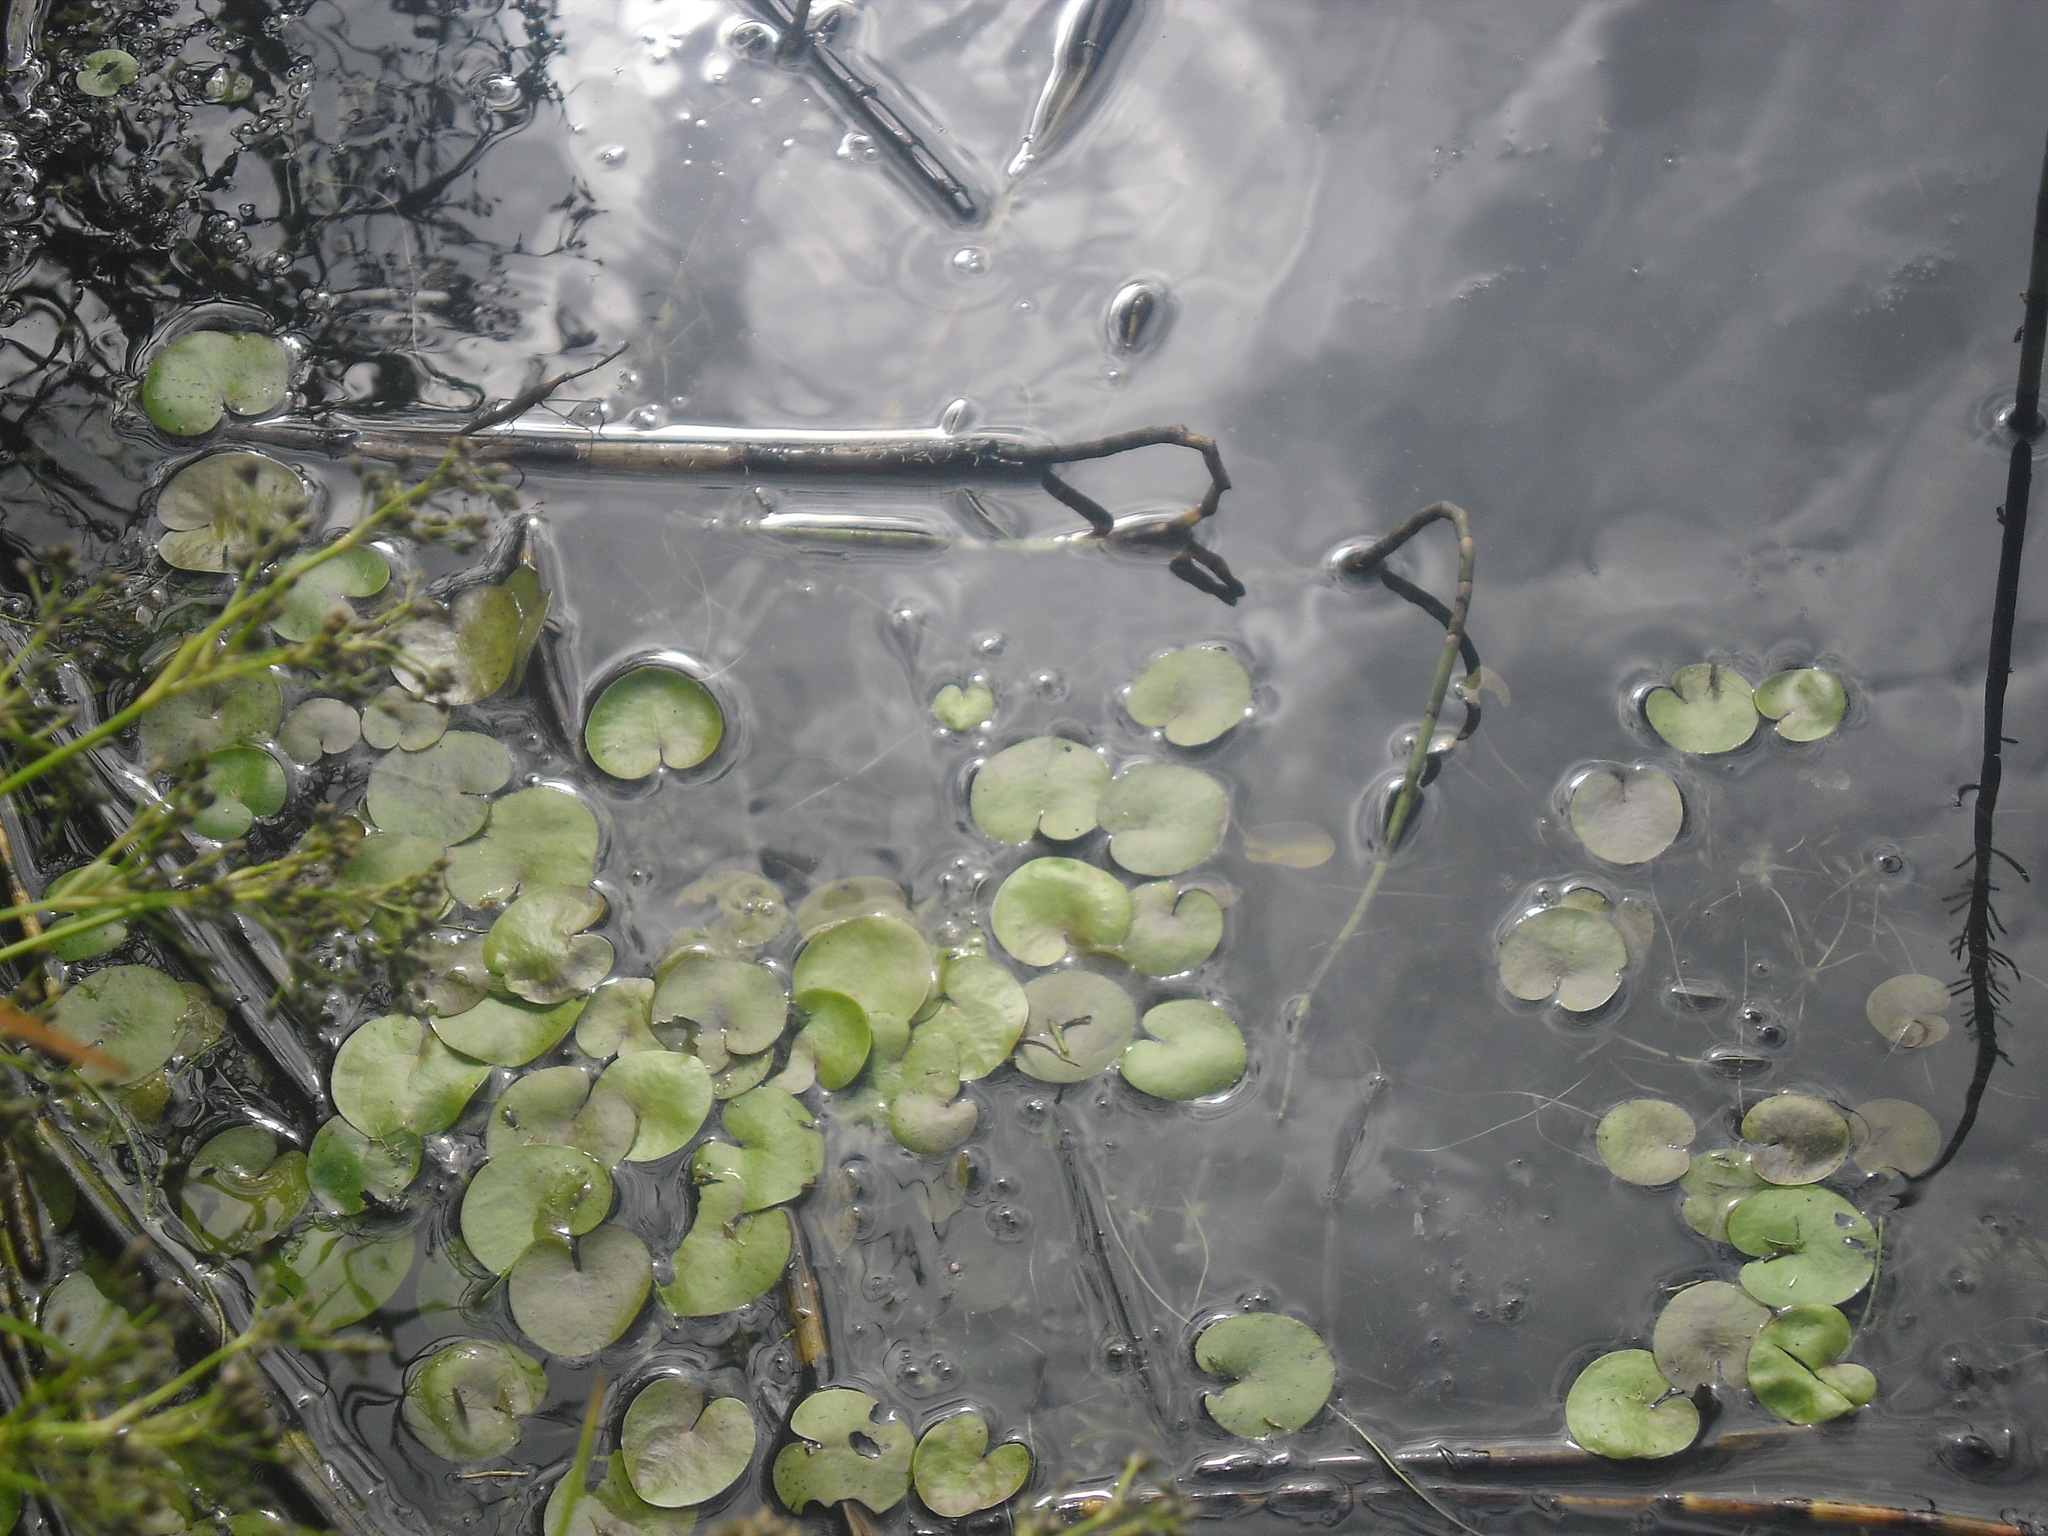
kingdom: Plantae
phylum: Tracheophyta
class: Liliopsida
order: Alismatales
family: Hydrocharitaceae
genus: Hydrocharis
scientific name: Hydrocharis morsus-ranae
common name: Frogbit
